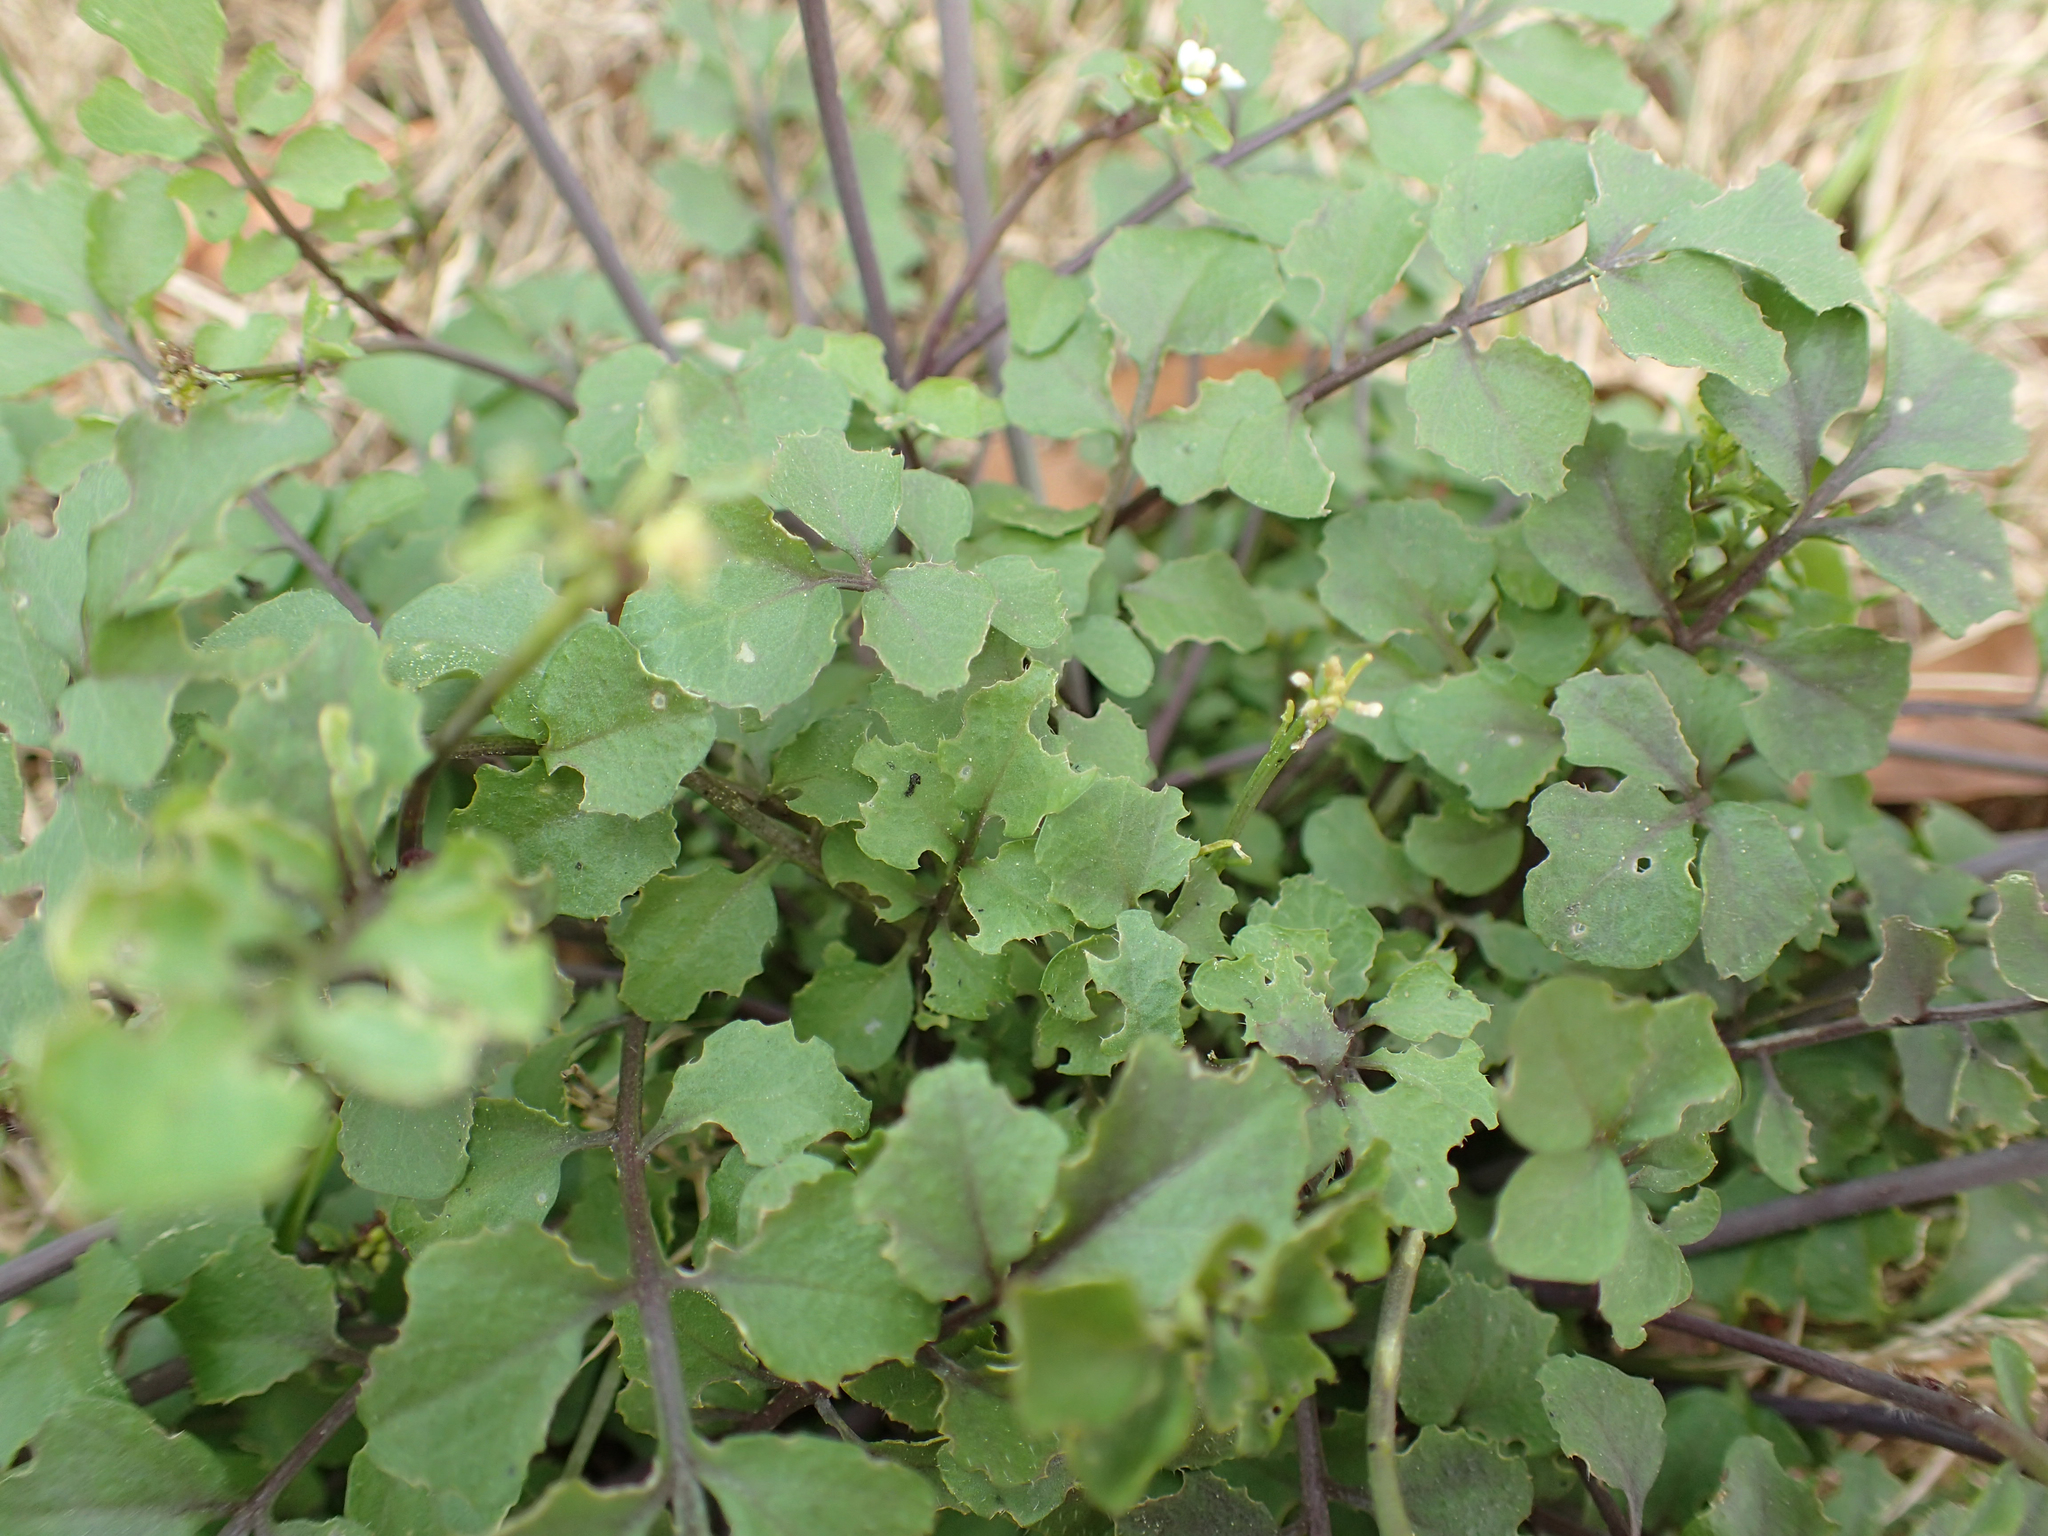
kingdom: Plantae
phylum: Tracheophyta
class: Magnoliopsida
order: Brassicales
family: Brassicaceae
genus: Cardamine
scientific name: Cardamine hirsuta
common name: Hairy bittercress
